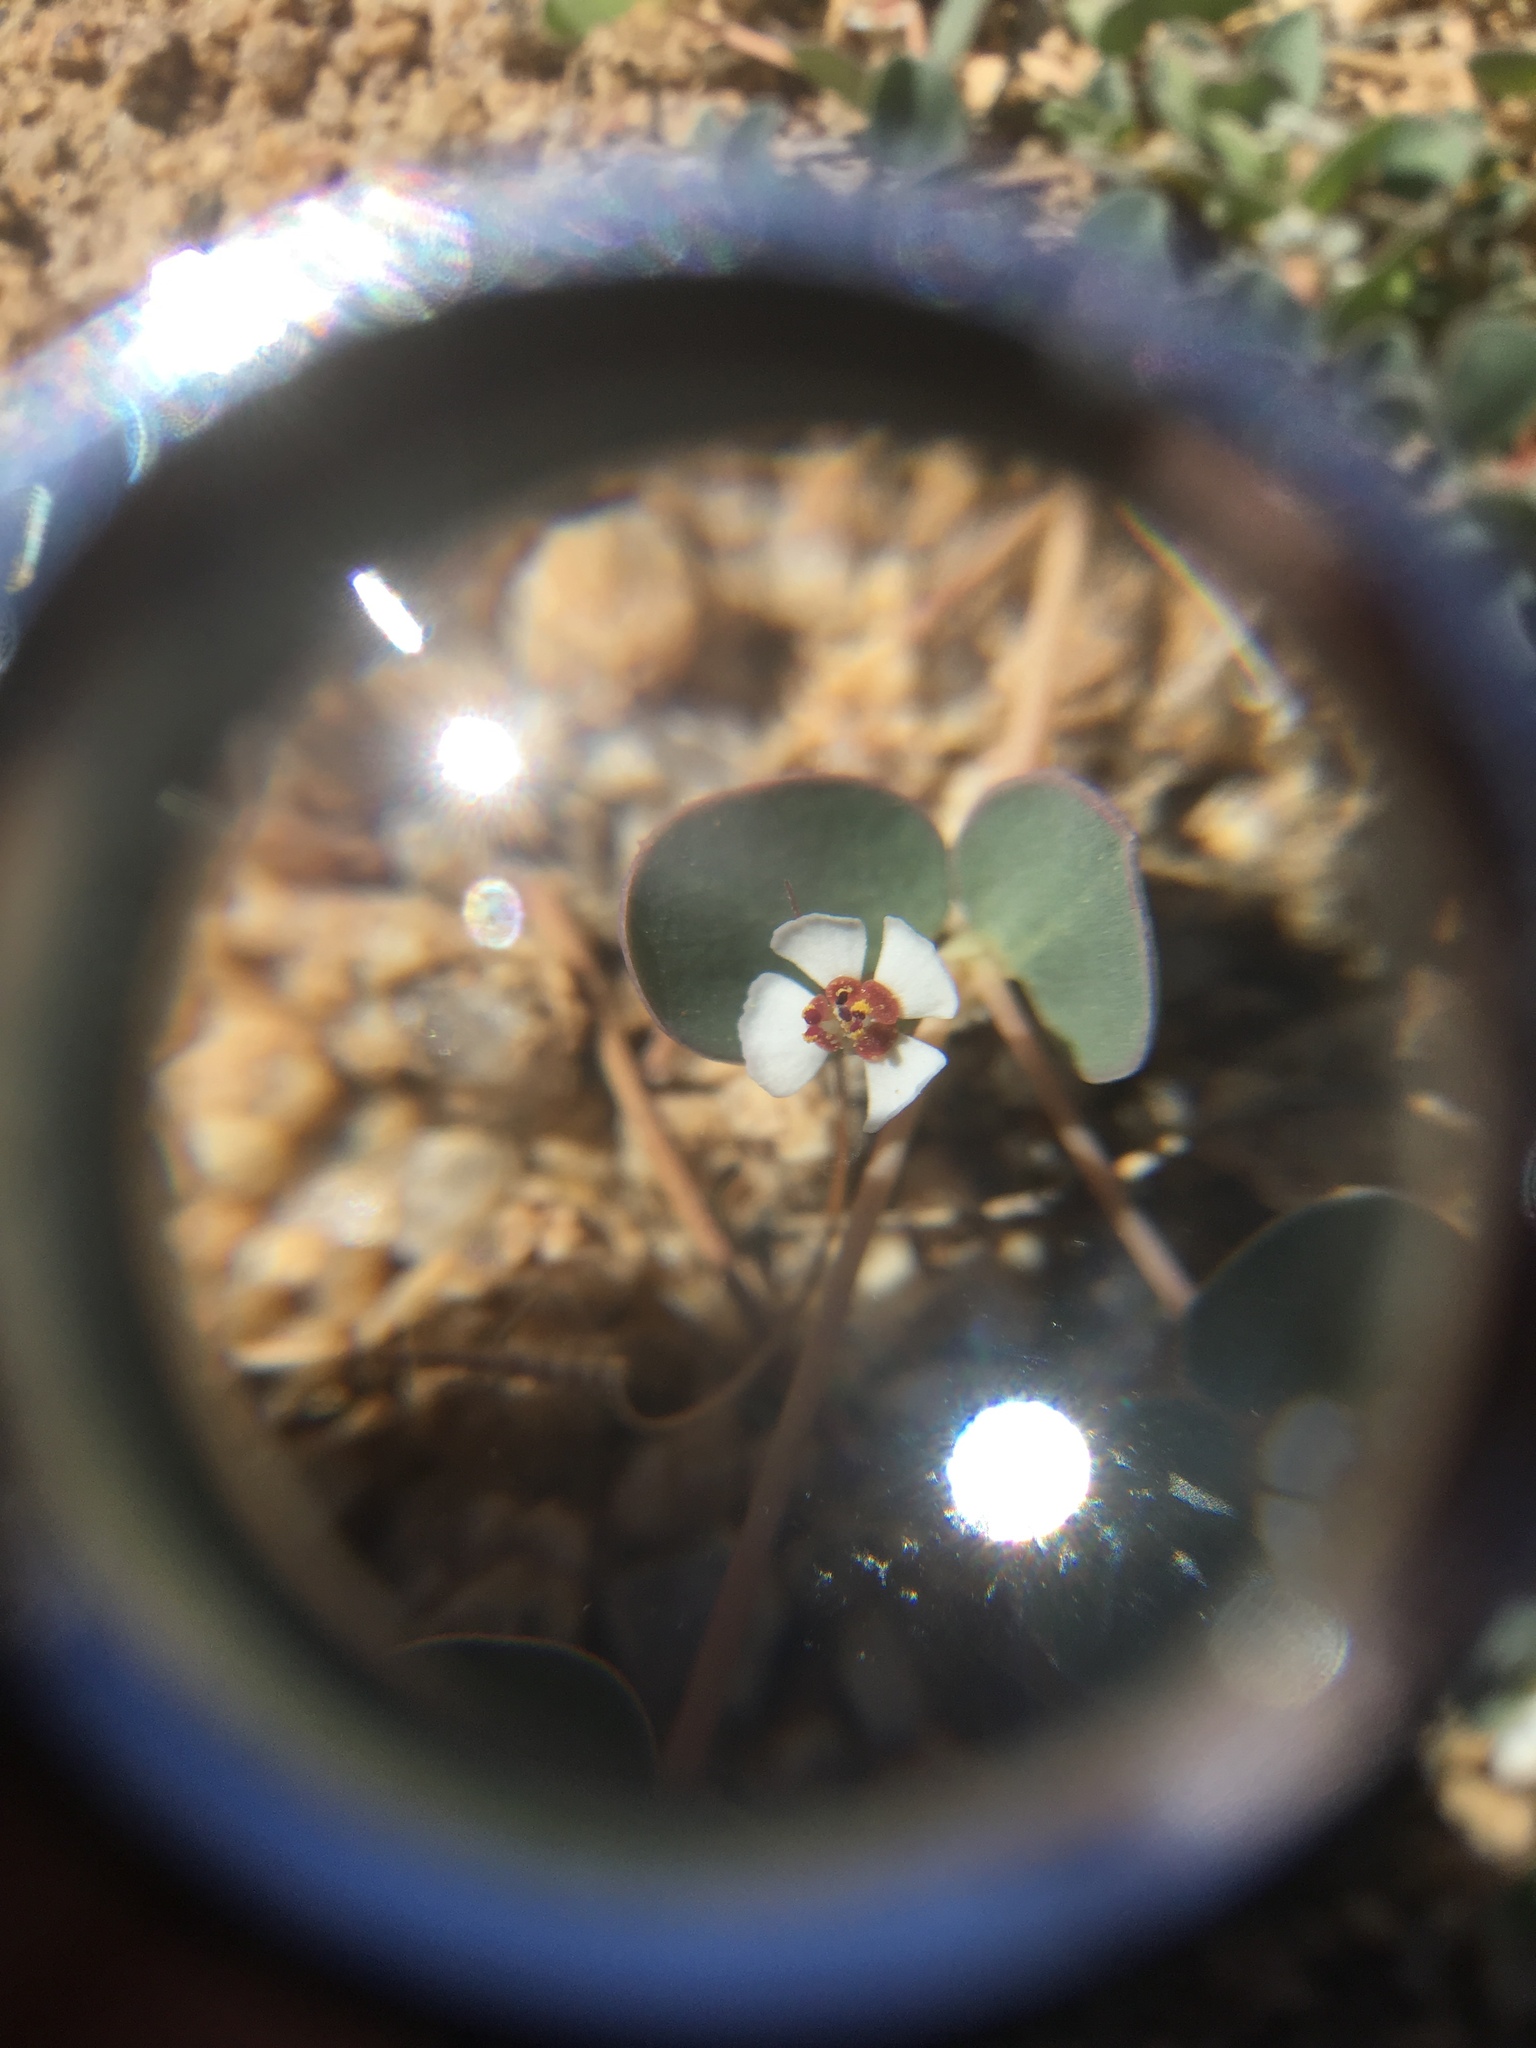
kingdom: Plantae
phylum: Tracheophyta
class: Magnoliopsida
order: Malpighiales
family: Euphorbiaceae
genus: Euphorbia
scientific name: Euphorbia albomarginata
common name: Whitemargin sandmat
